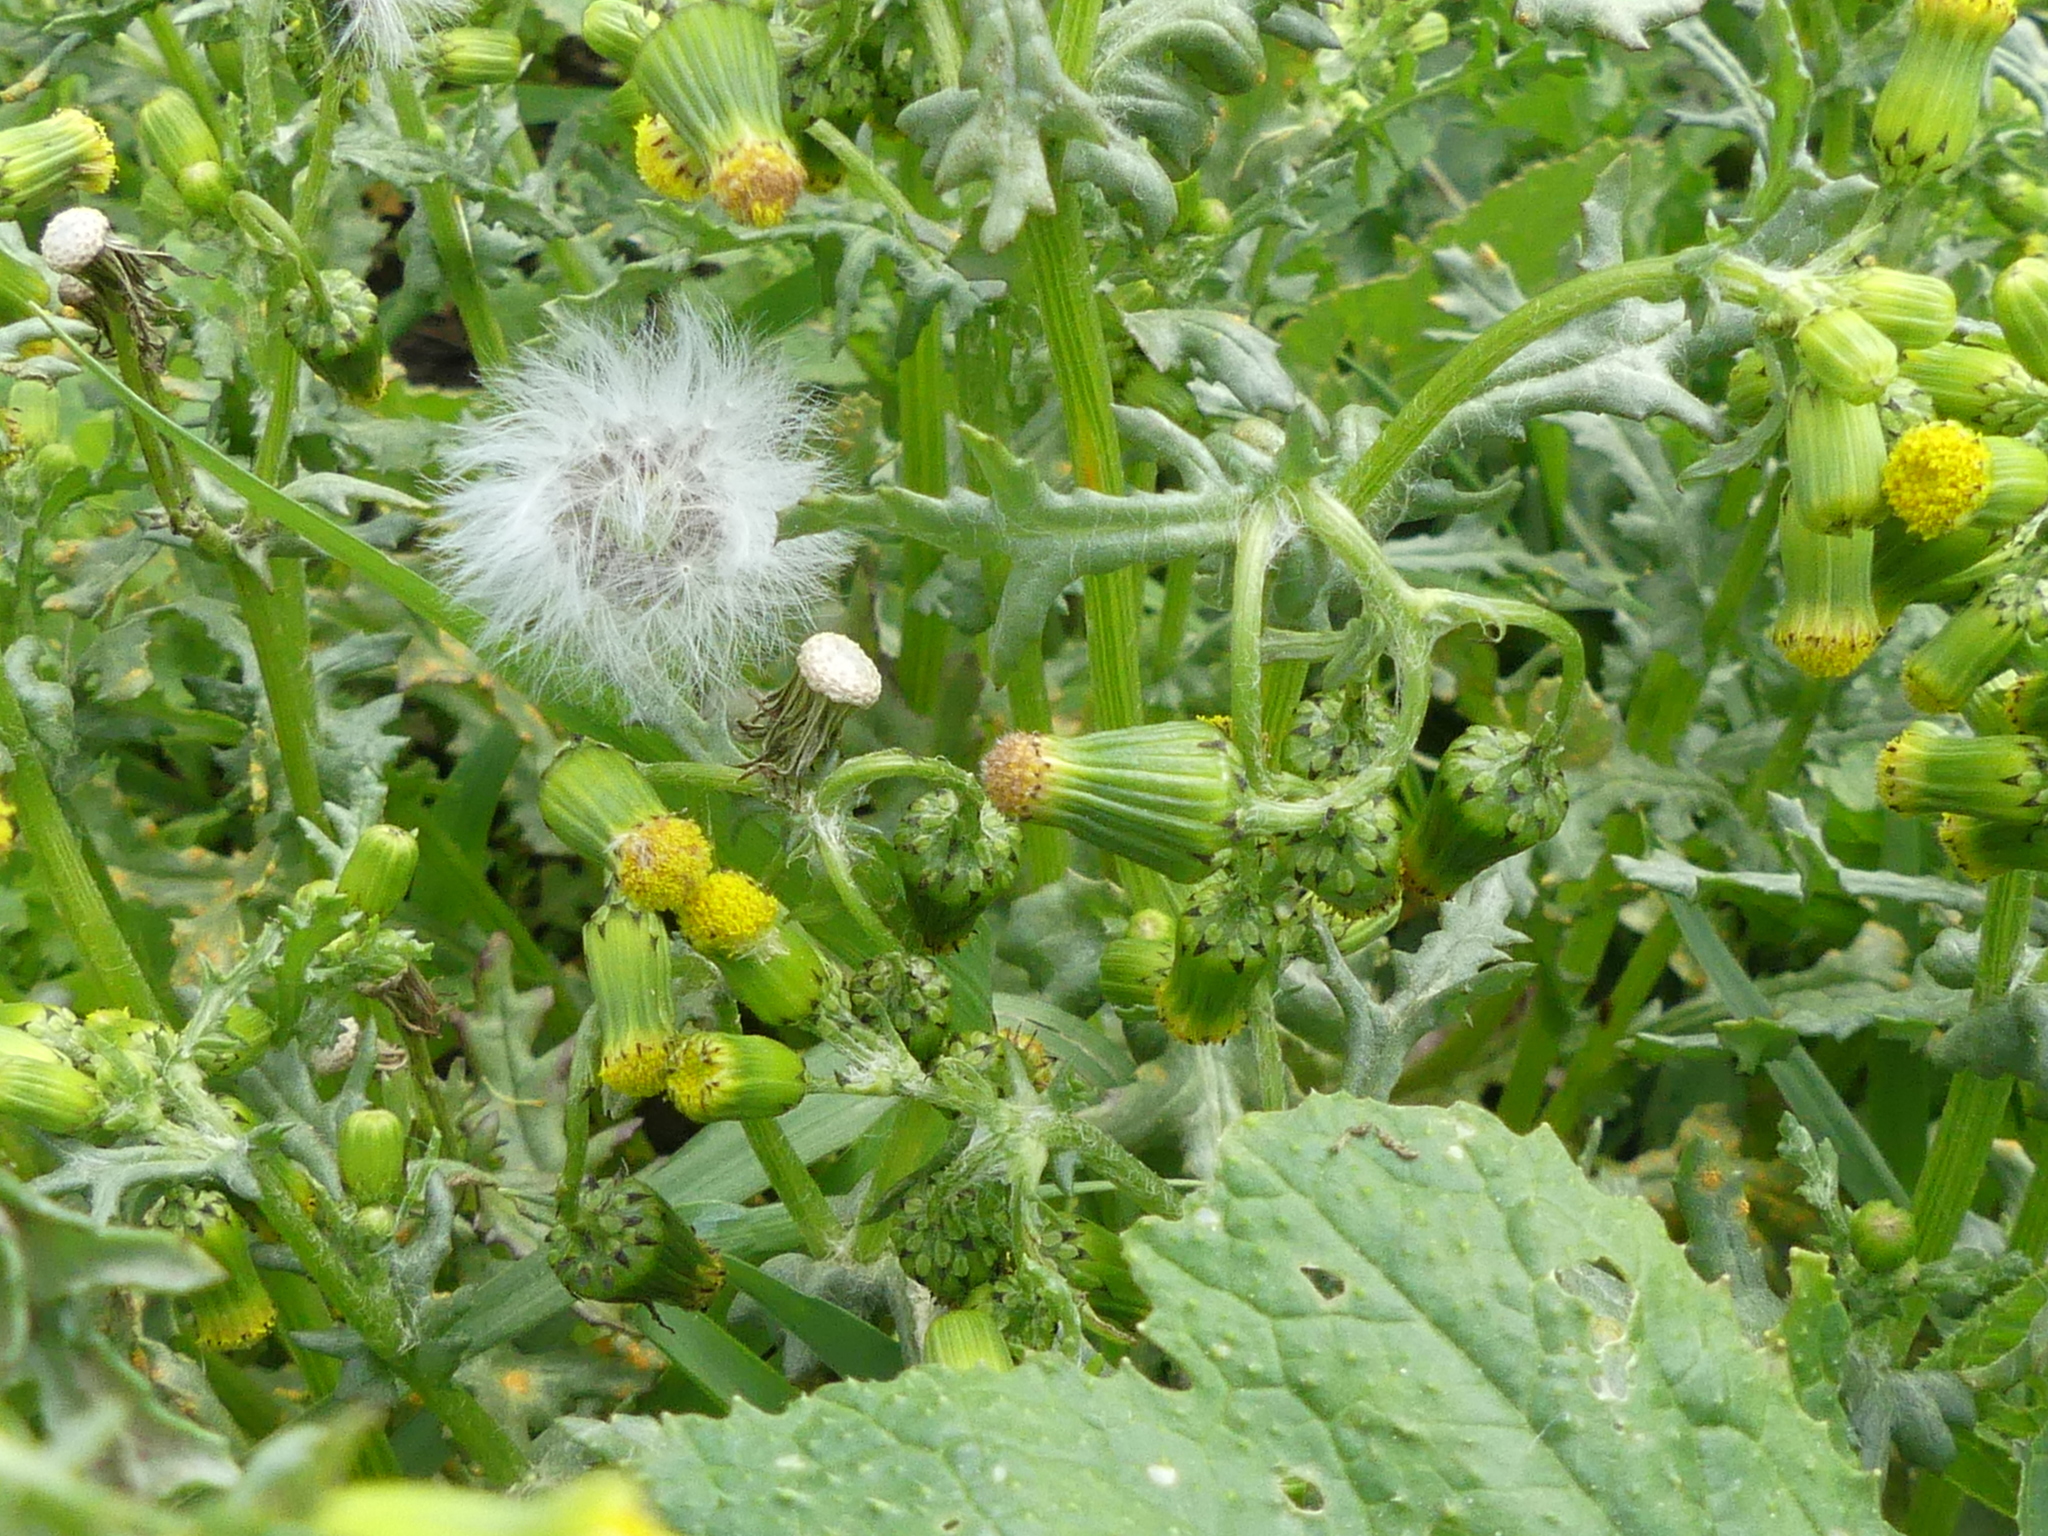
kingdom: Plantae
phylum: Tracheophyta
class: Magnoliopsida
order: Asterales
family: Asteraceae
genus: Senecio
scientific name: Senecio vulgaris
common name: Old-man-in-the-spring
